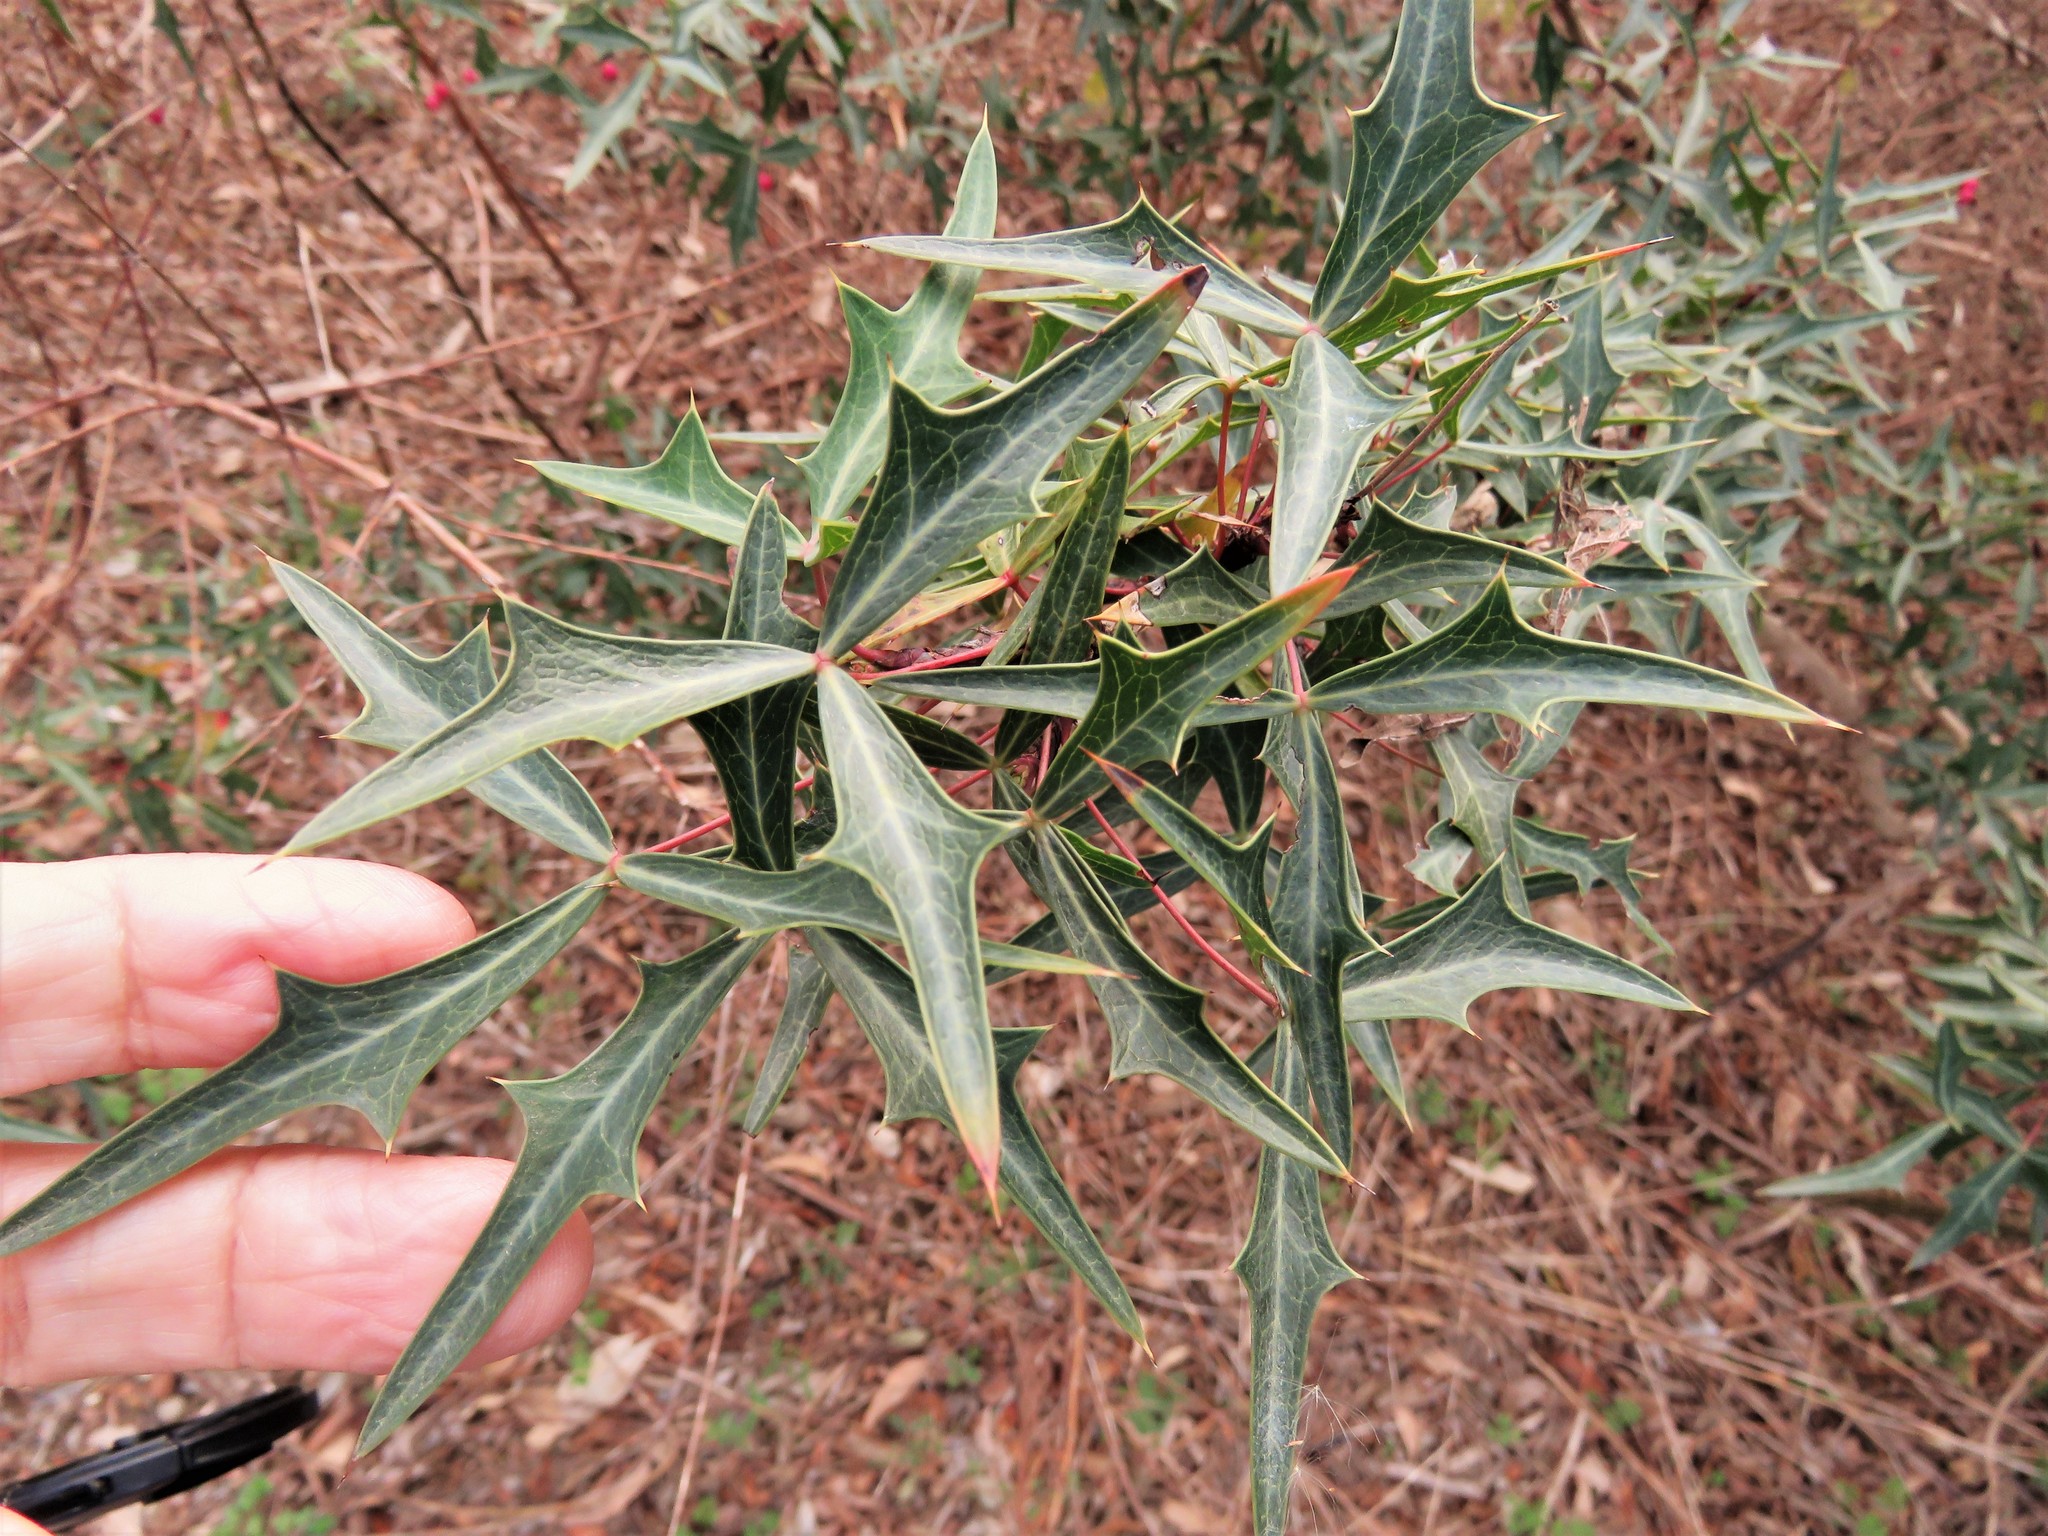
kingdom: Plantae
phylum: Tracheophyta
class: Magnoliopsida
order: Ranunculales
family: Berberidaceae
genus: Alloberberis
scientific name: Alloberberis trifoliolata
